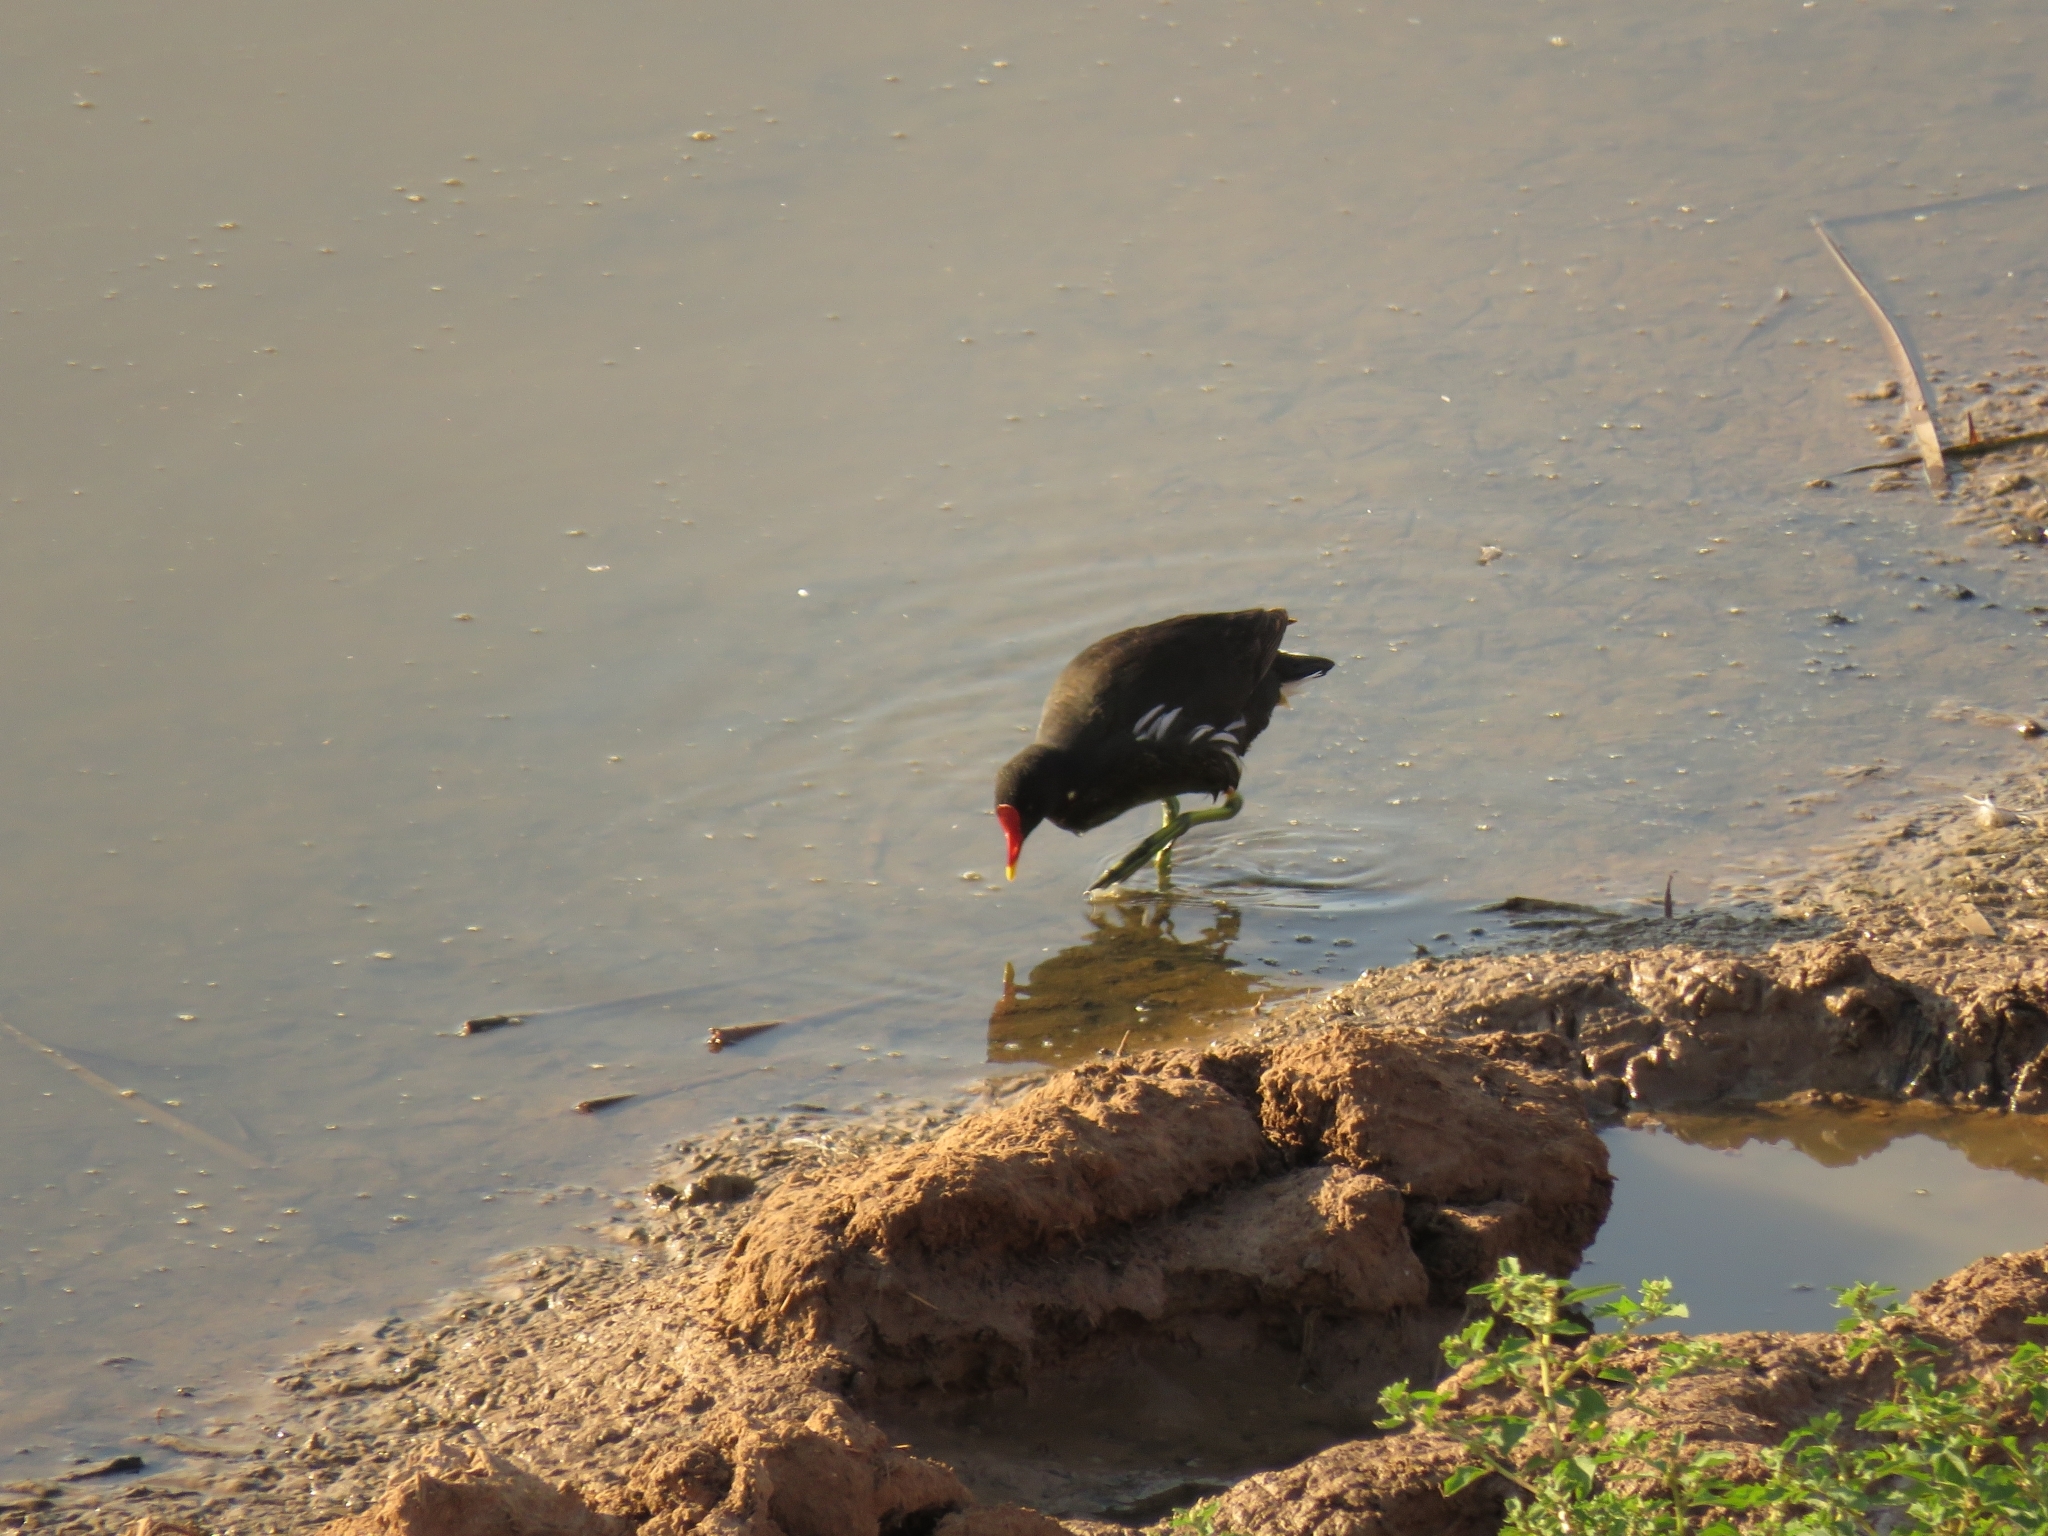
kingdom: Animalia
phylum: Chordata
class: Aves
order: Gruiformes
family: Rallidae
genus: Gallinula
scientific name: Gallinula chloropus
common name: Common moorhen
